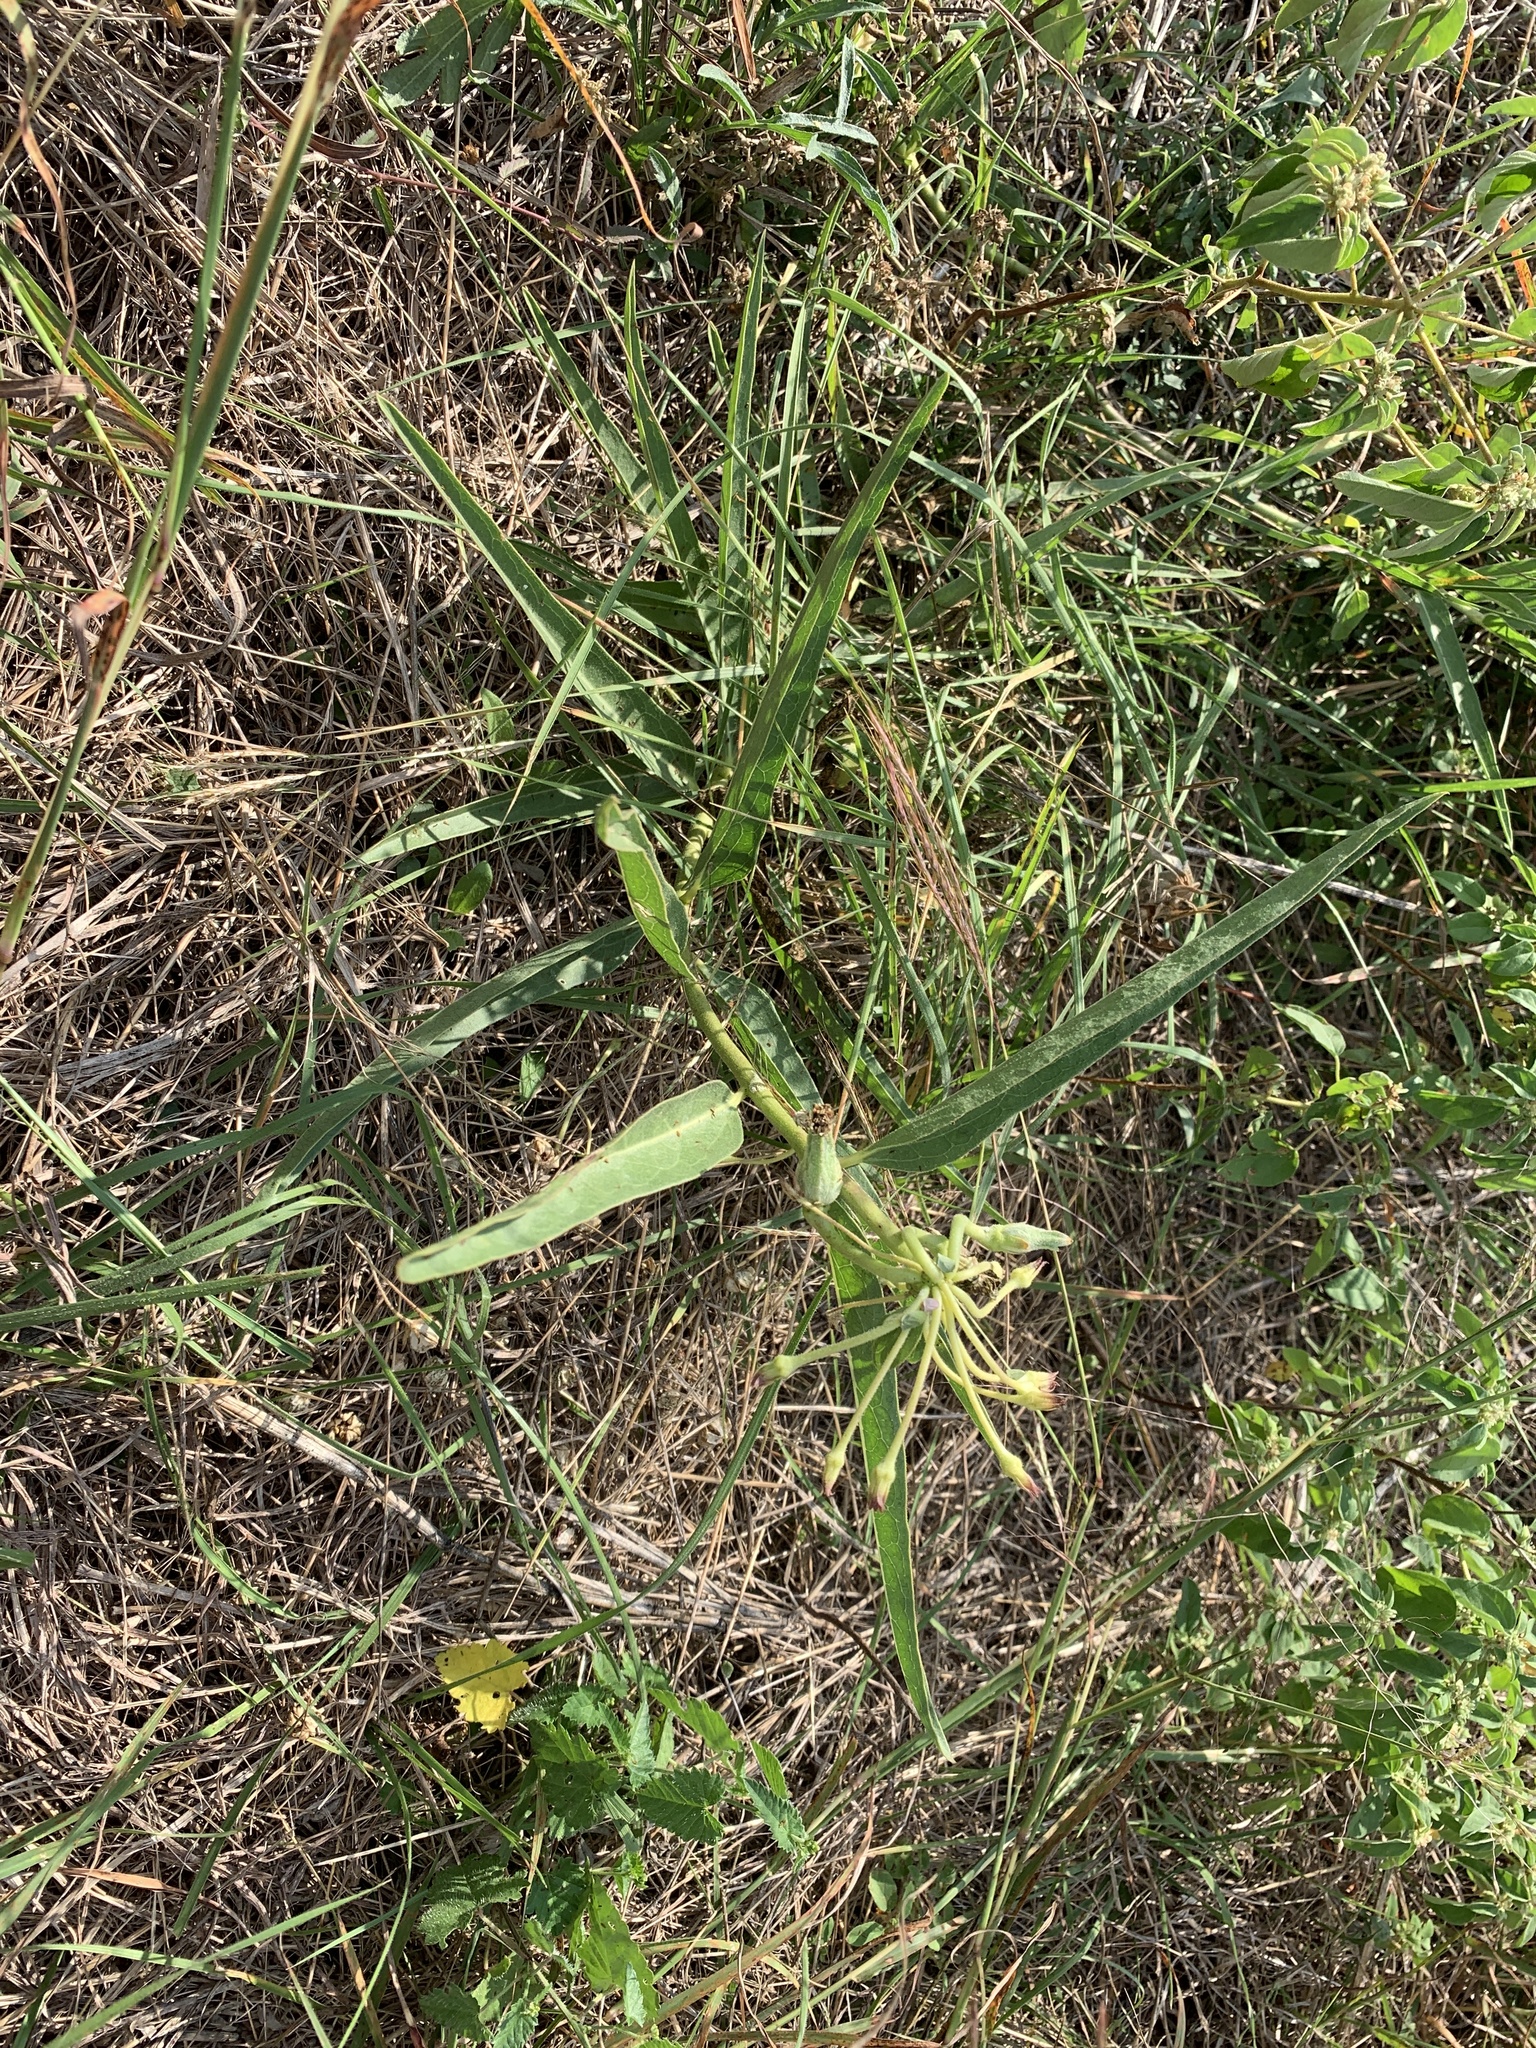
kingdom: Plantae
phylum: Tracheophyta
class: Magnoliopsida
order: Gentianales
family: Apocynaceae
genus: Asclepias
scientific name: Asclepias asperula
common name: Antelope horns
